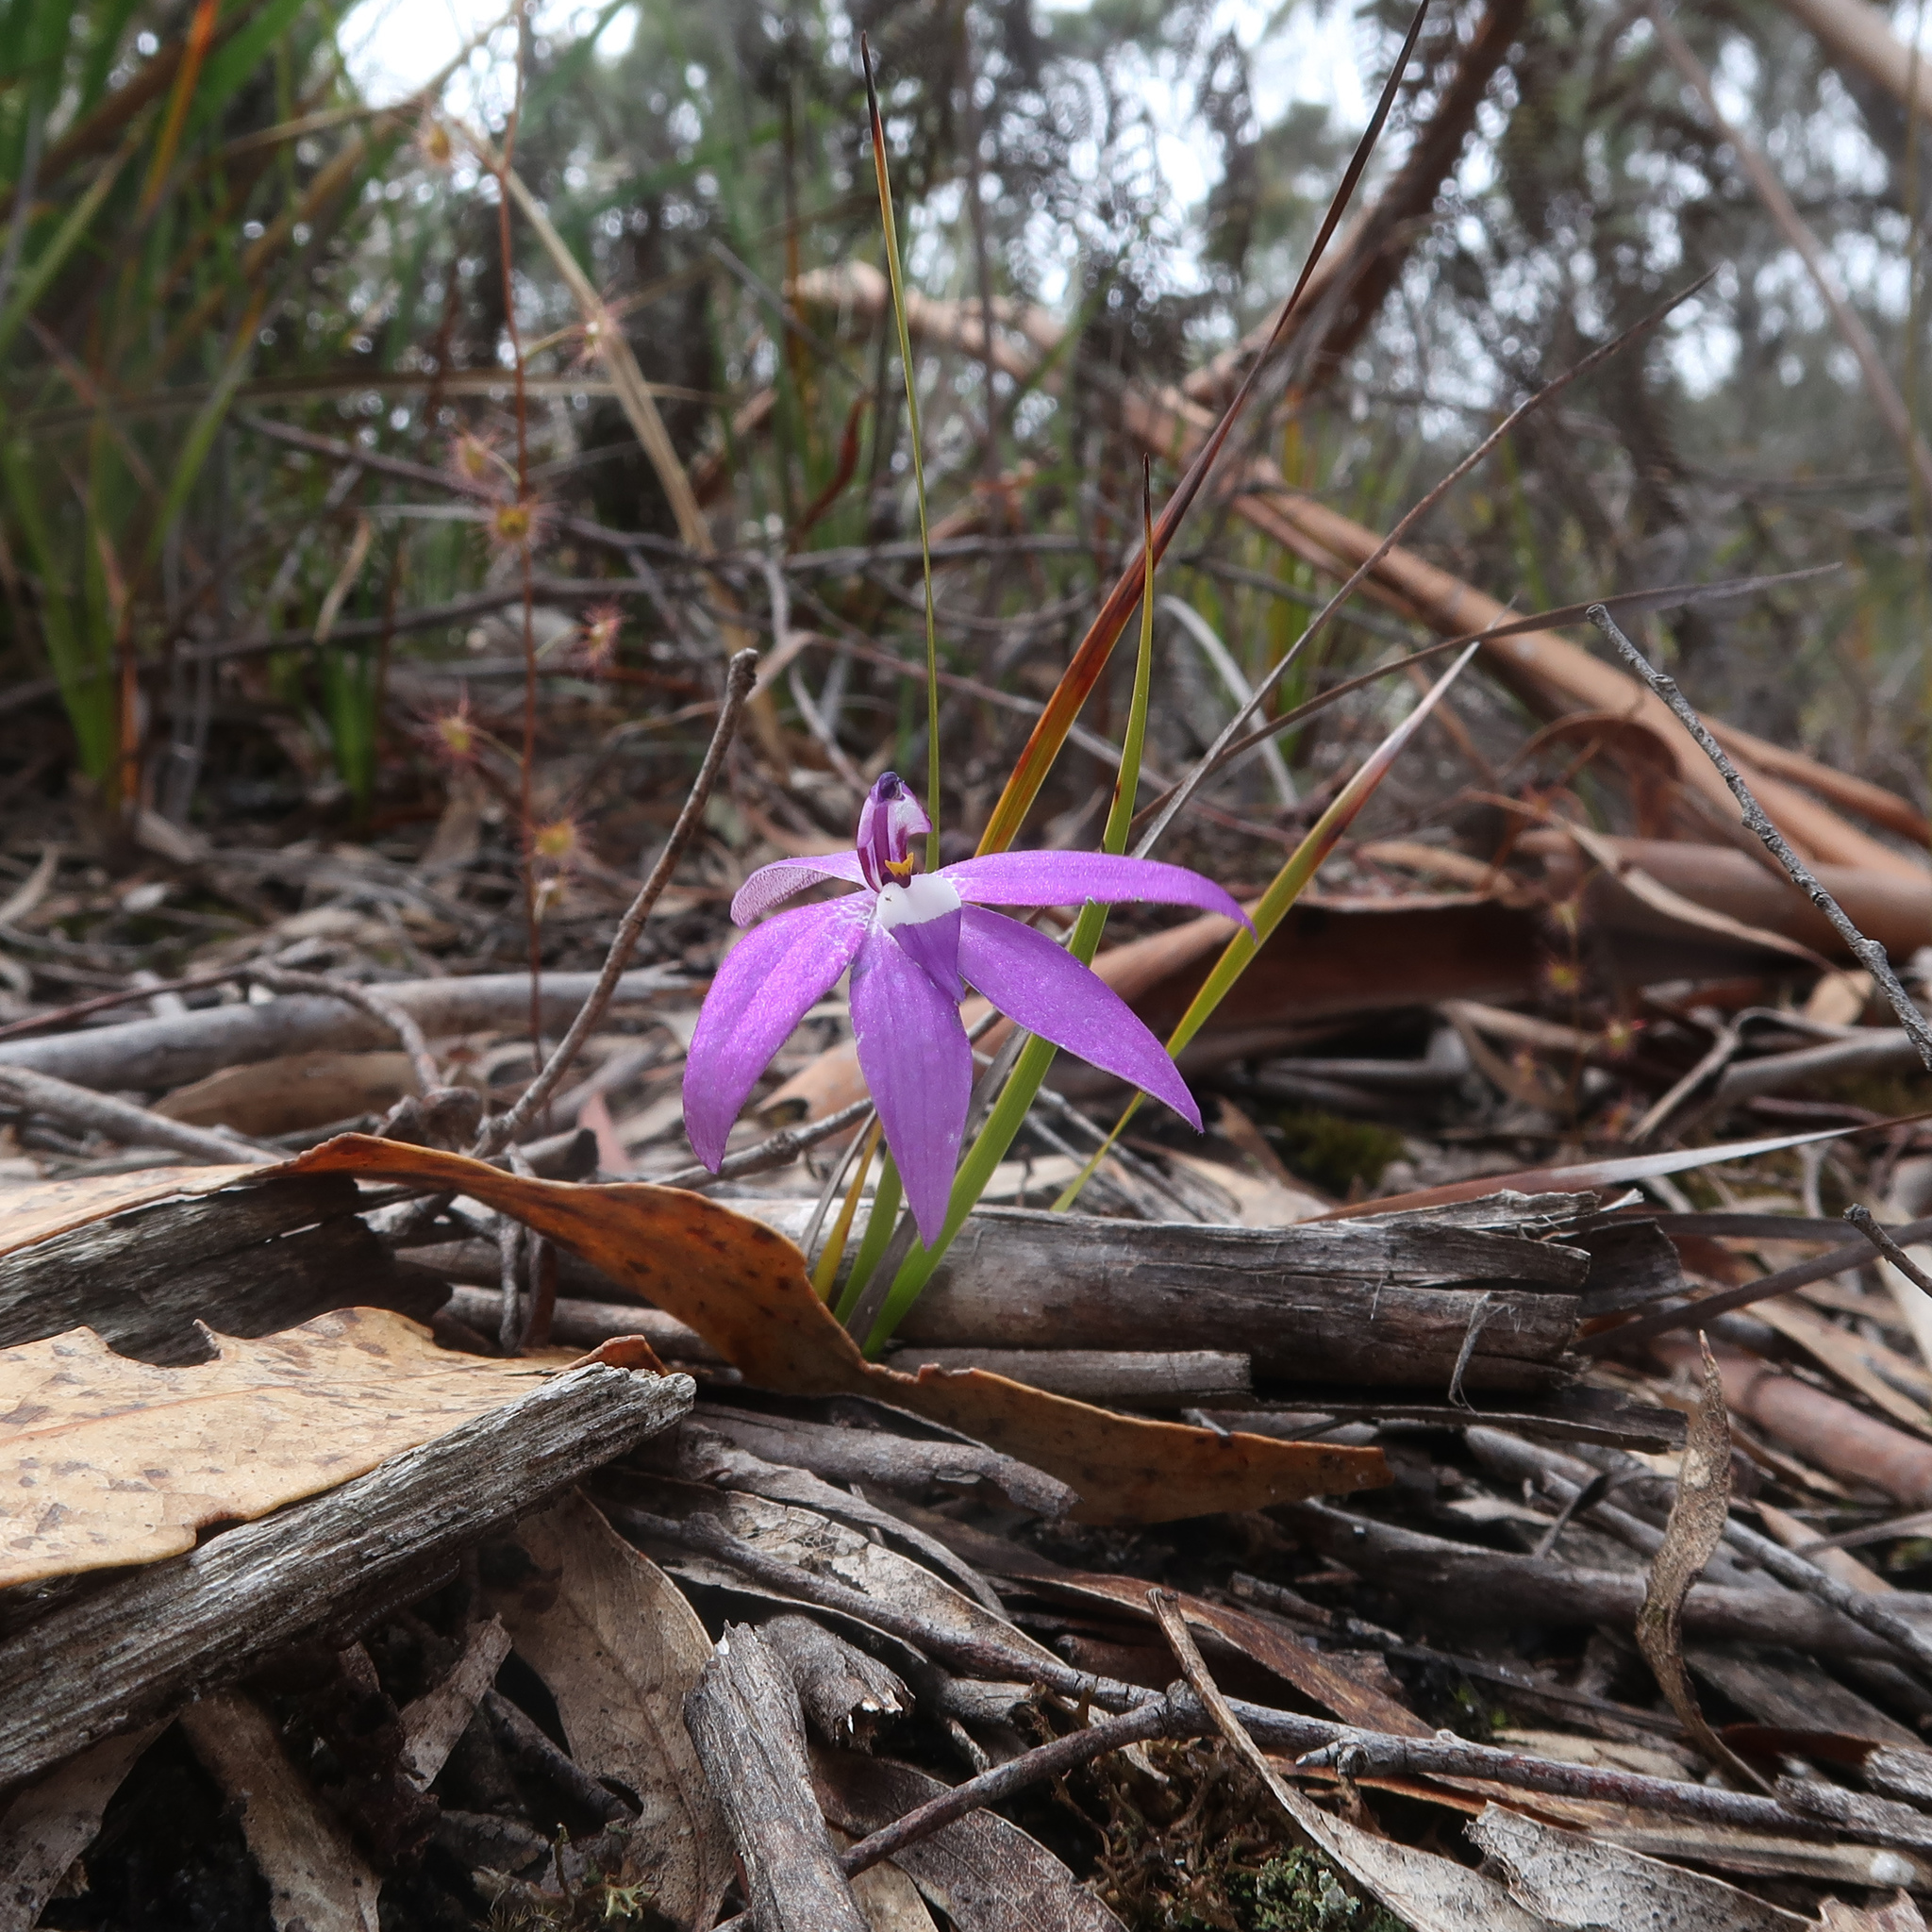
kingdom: Plantae
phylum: Tracheophyta
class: Liliopsida
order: Asparagales
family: Orchidaceae
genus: Caladenia
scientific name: Caladenia major
